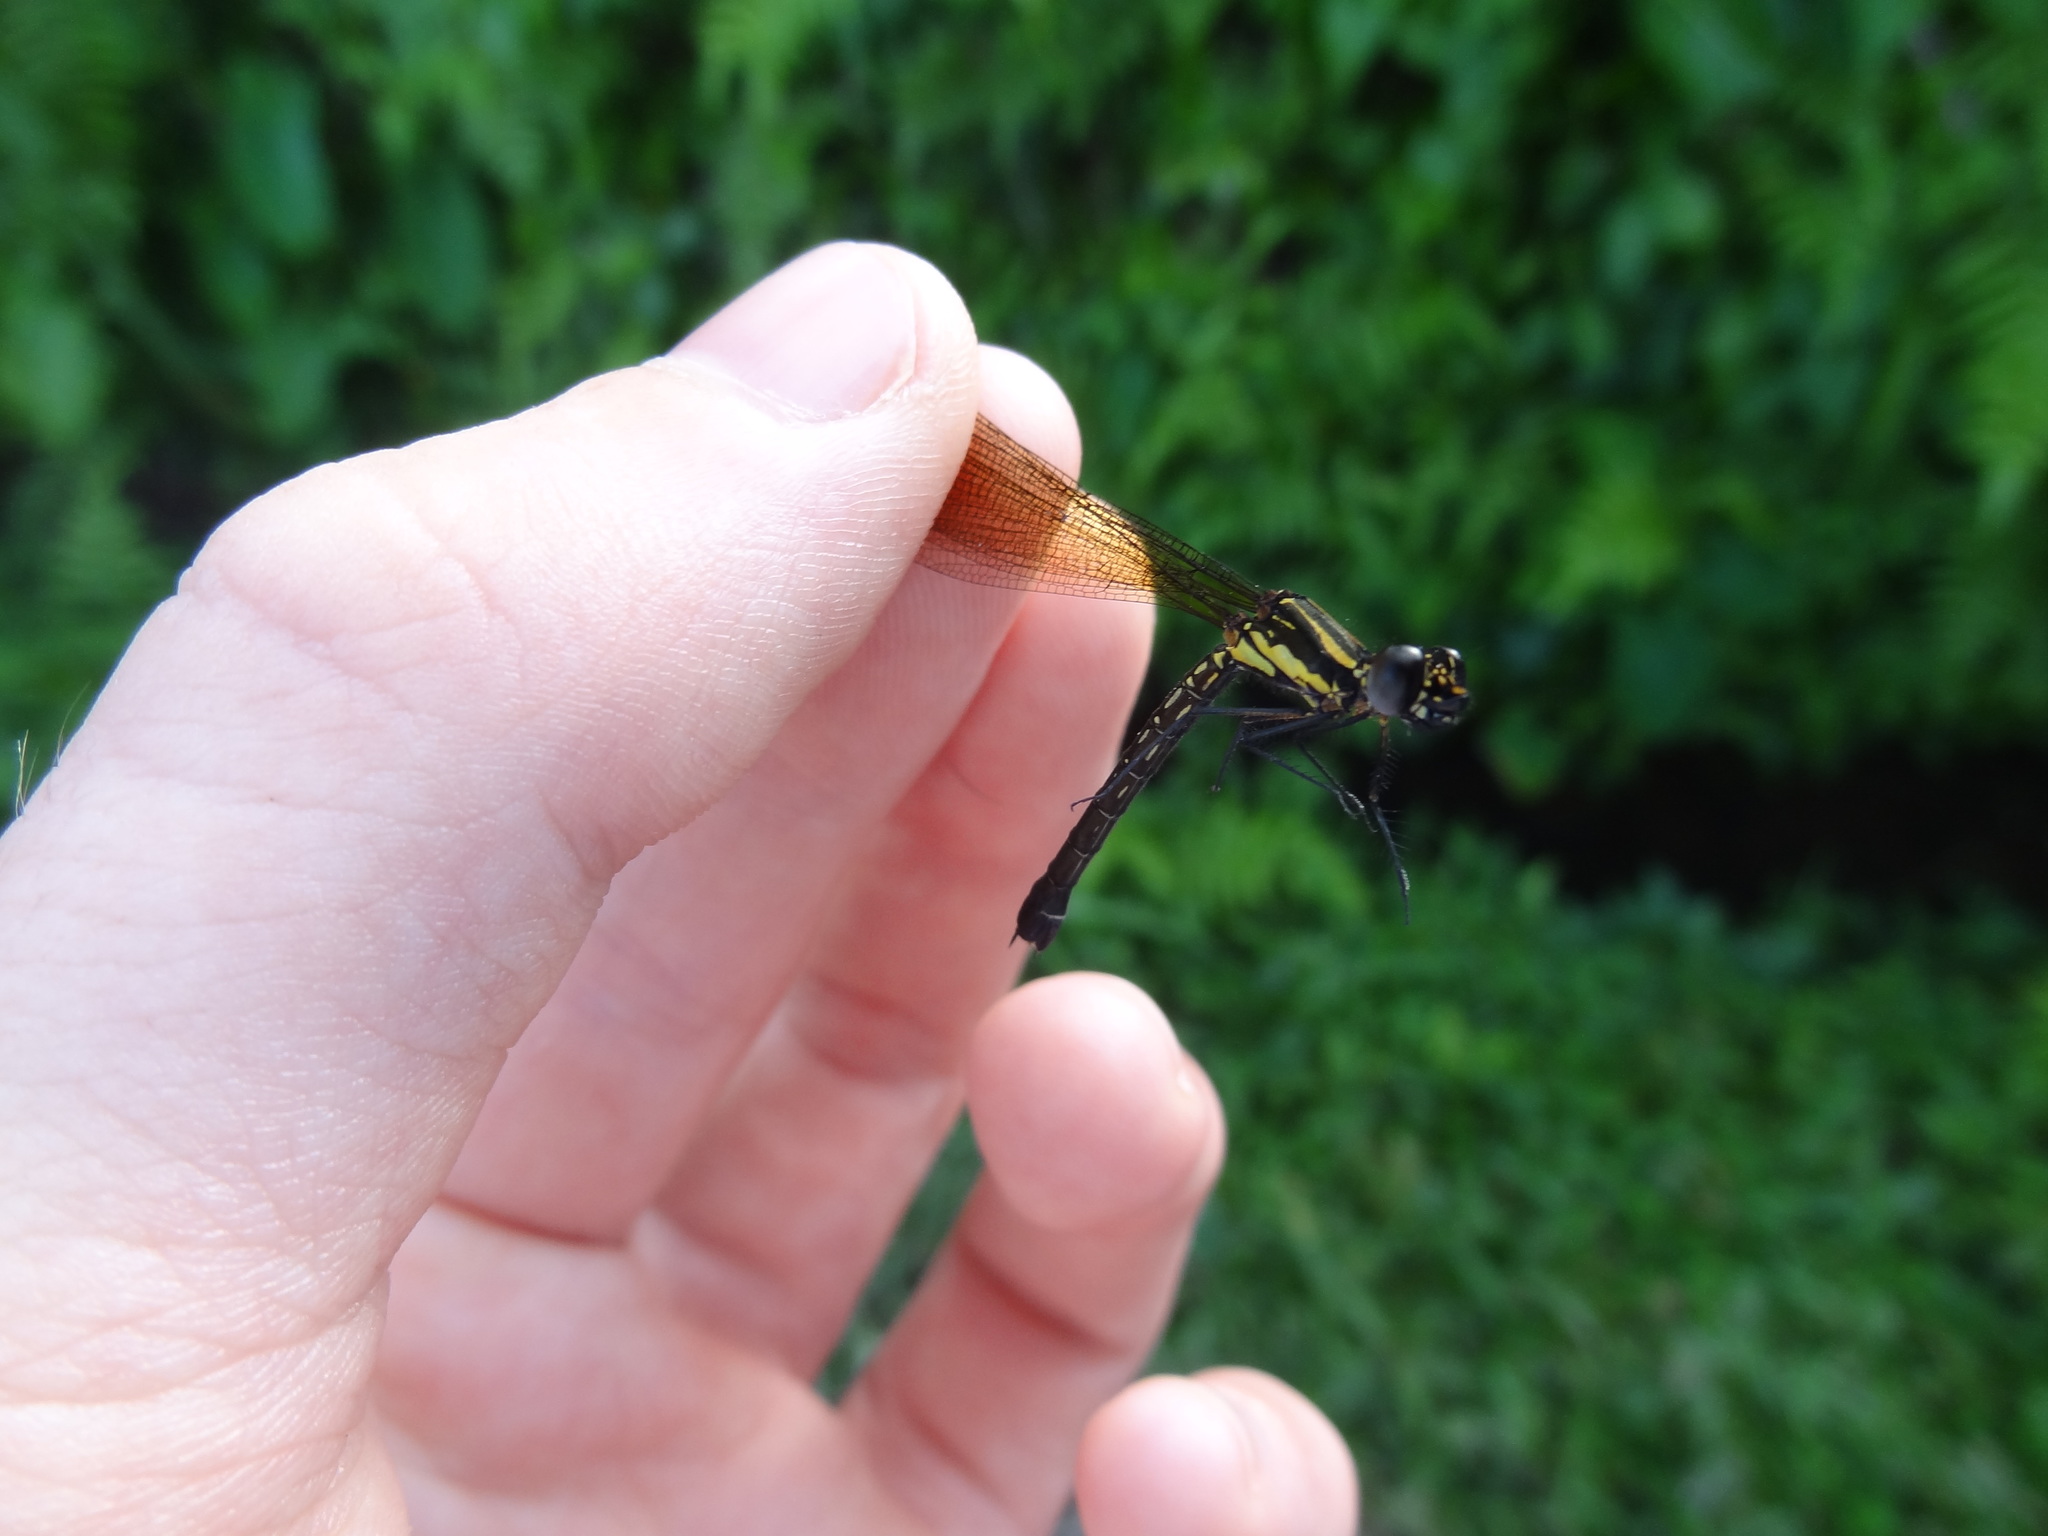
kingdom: Animalia
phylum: Arthropoda
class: Insecta
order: Odonata
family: Chlorocyphidae
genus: Libellago
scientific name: Libellago lineata
